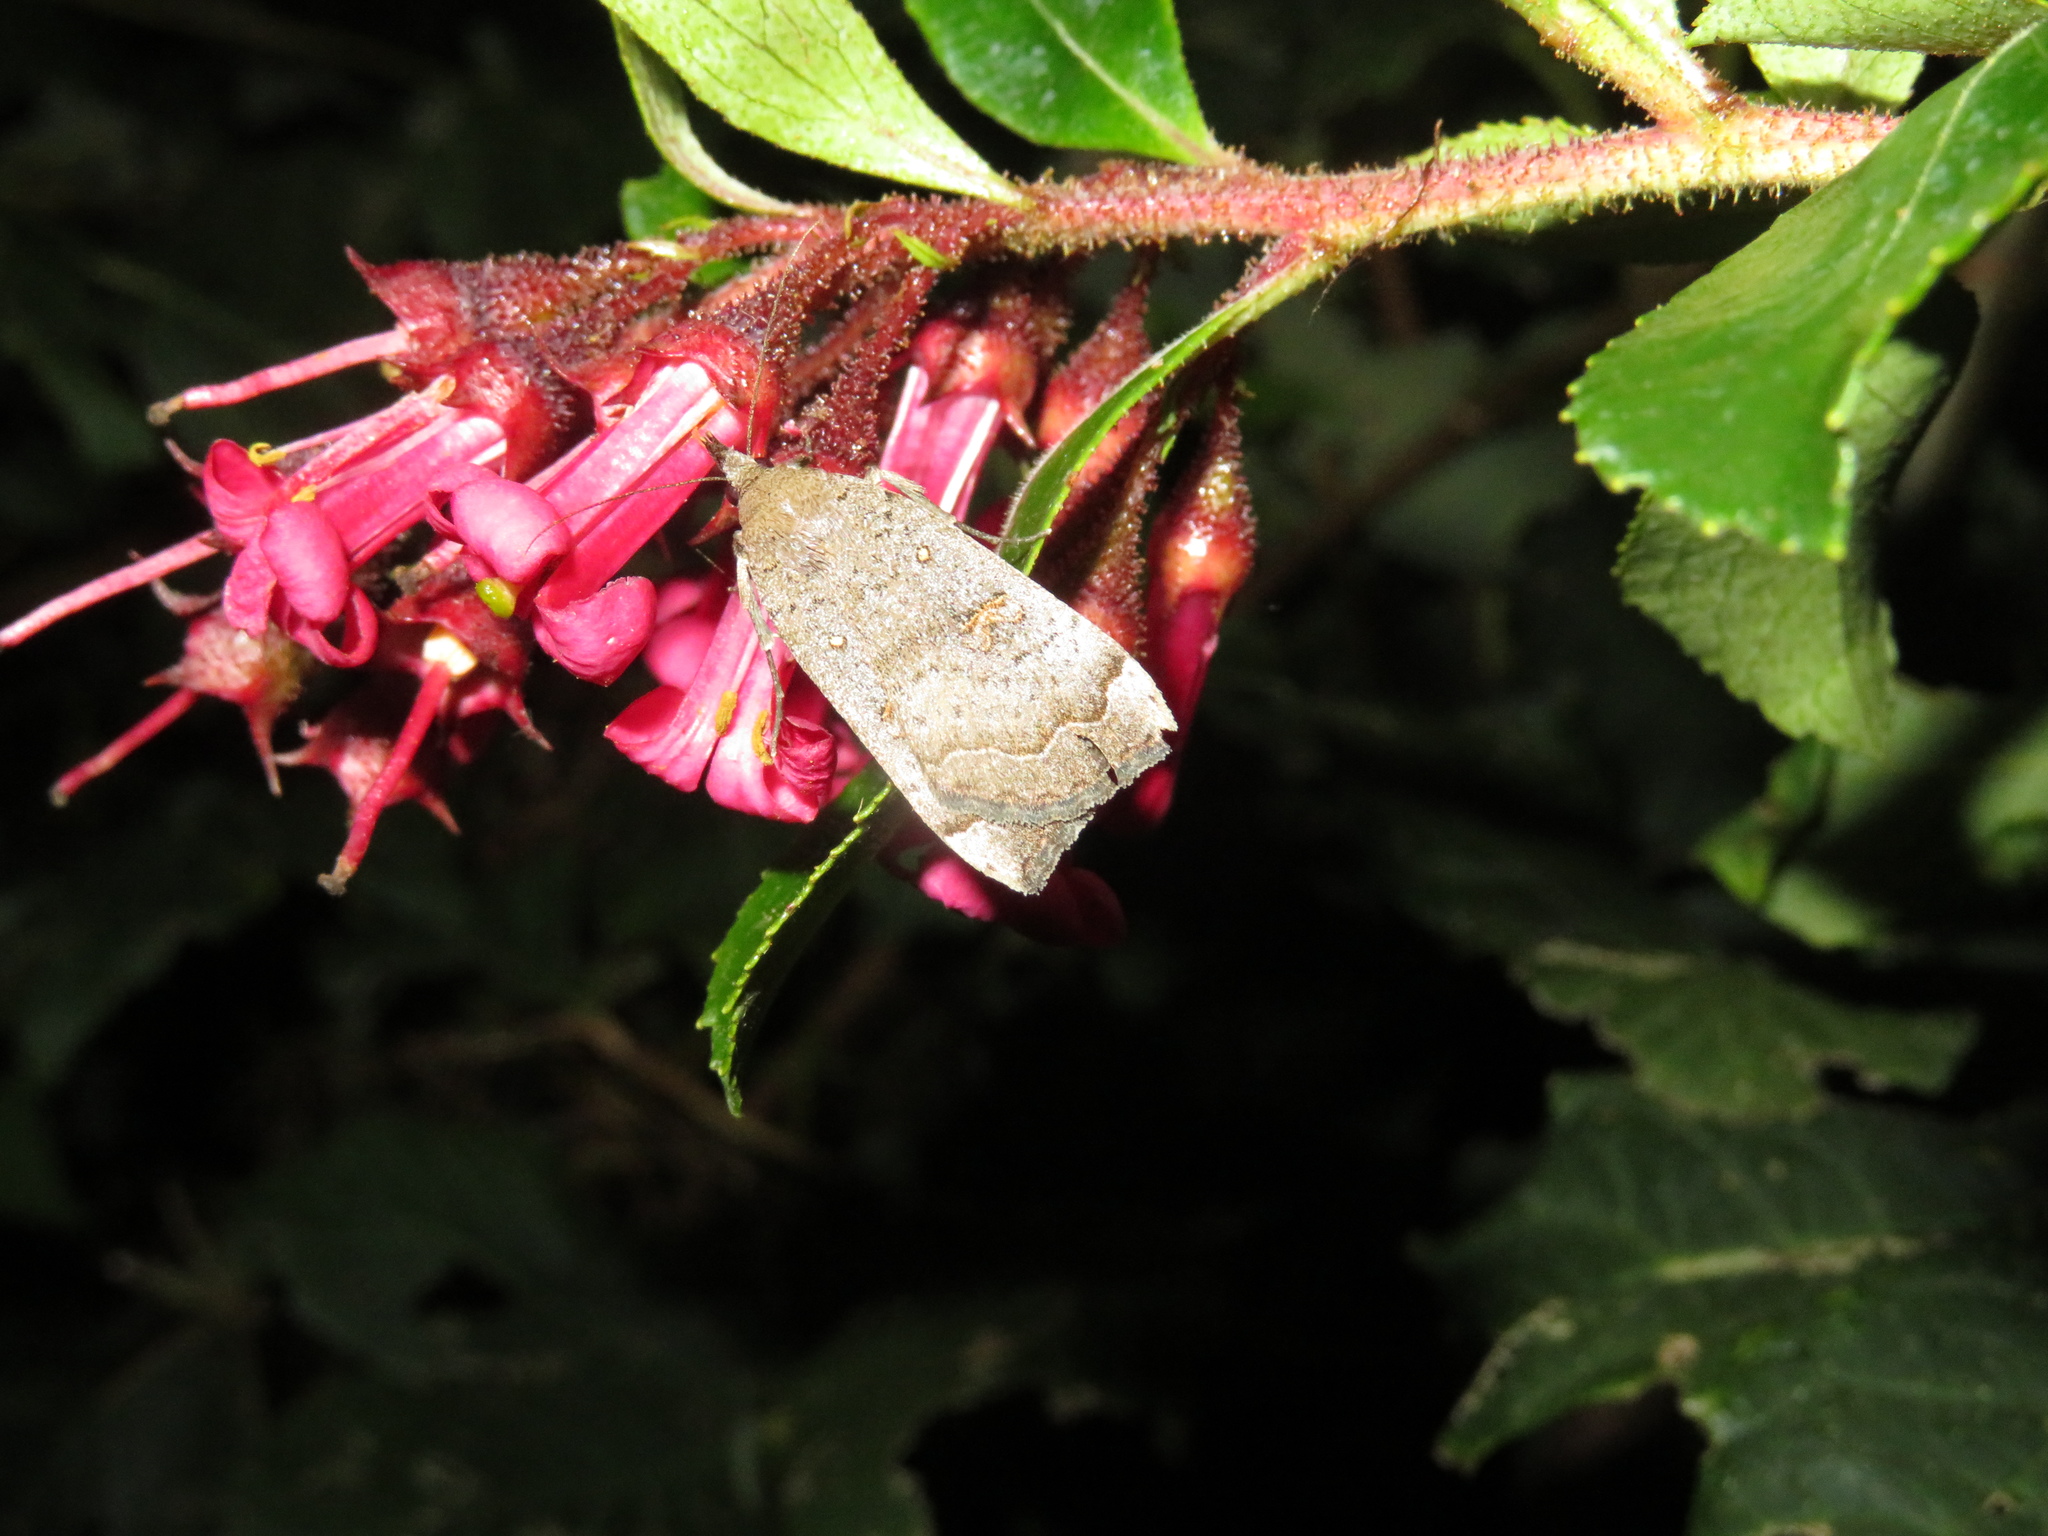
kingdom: Animalia
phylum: Arthropoda
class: Insecta
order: Lepidoptera
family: Erebidae
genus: Rhapsa
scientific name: Rhapsa scotosialis
